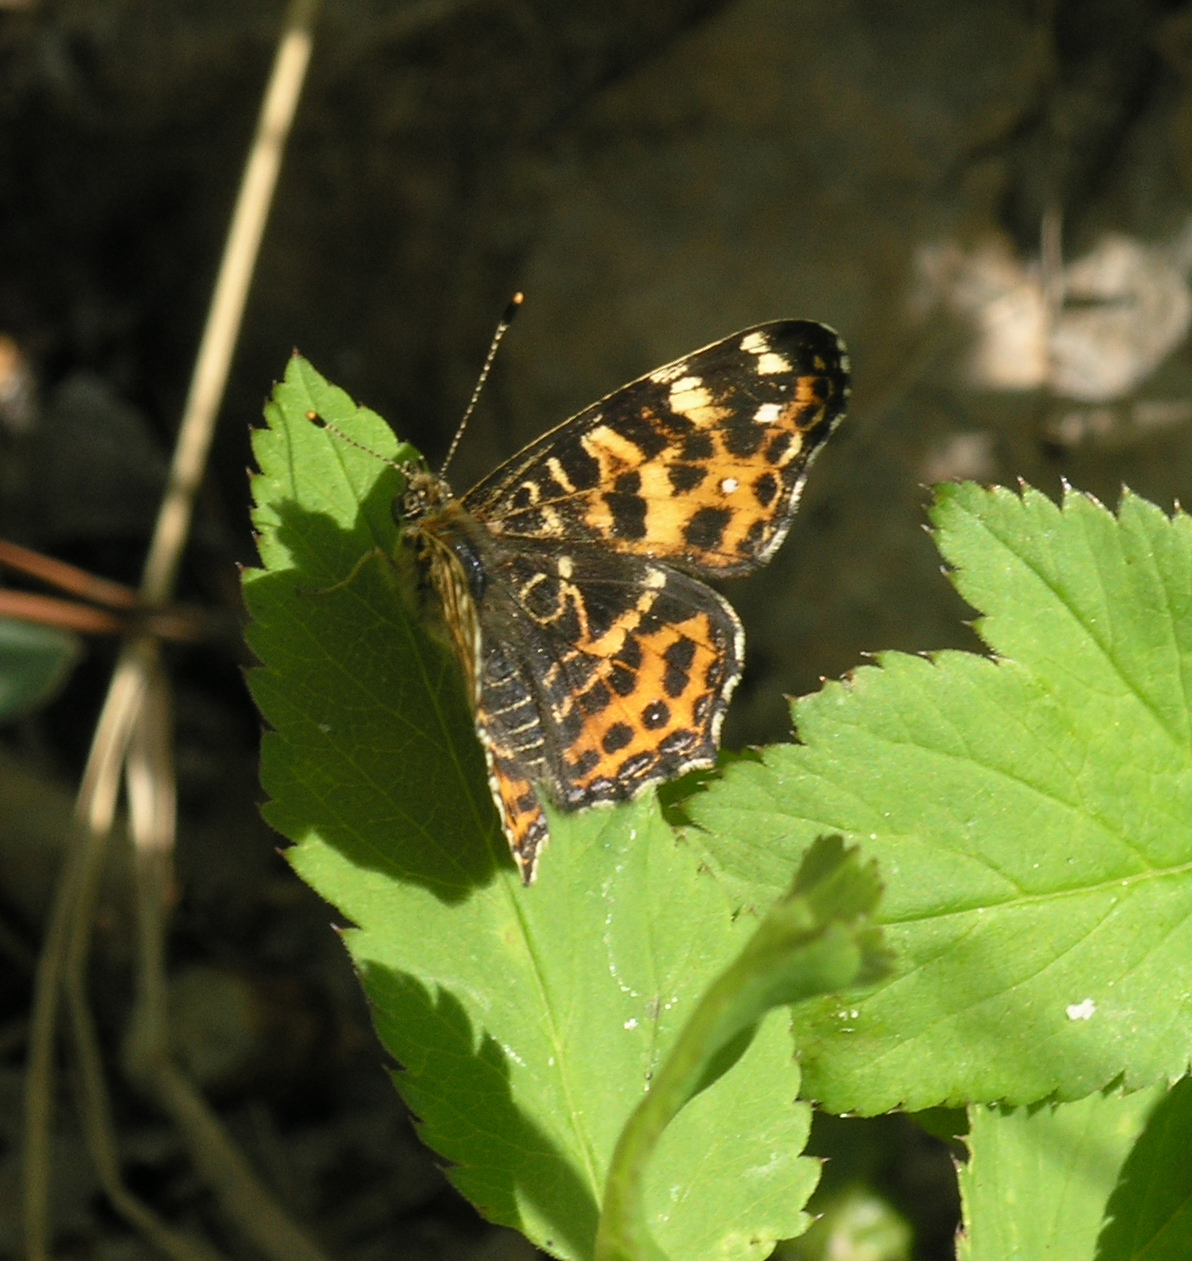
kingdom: Animalia
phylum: Arthropoda
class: Insecta
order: Lepidoptera
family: Nymphalidae
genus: Araschnia
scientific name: Araschnia levana
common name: Map butterfly
